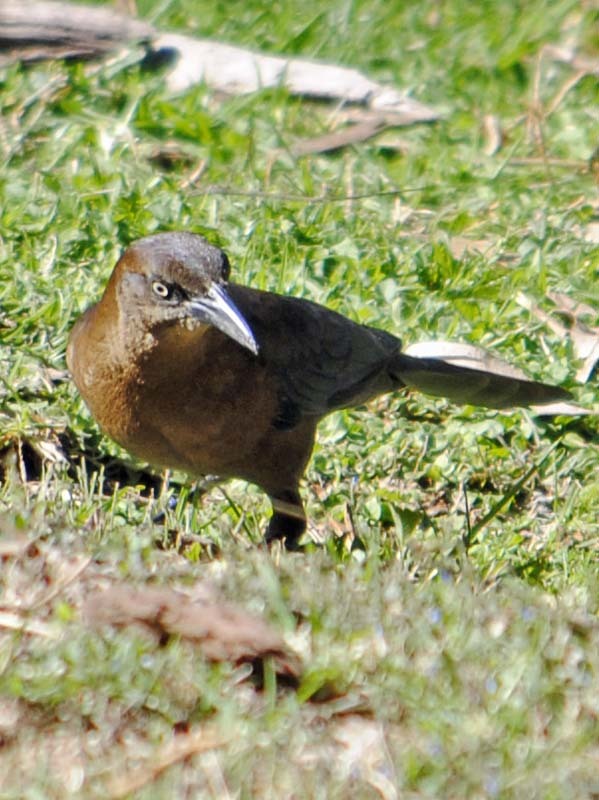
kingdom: Animalia
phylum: Chordata
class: Aves
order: Passeriformes
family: Icteridae
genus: Quiscalus
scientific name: Quiscalus mexicanus
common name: Great-tailed grackle
